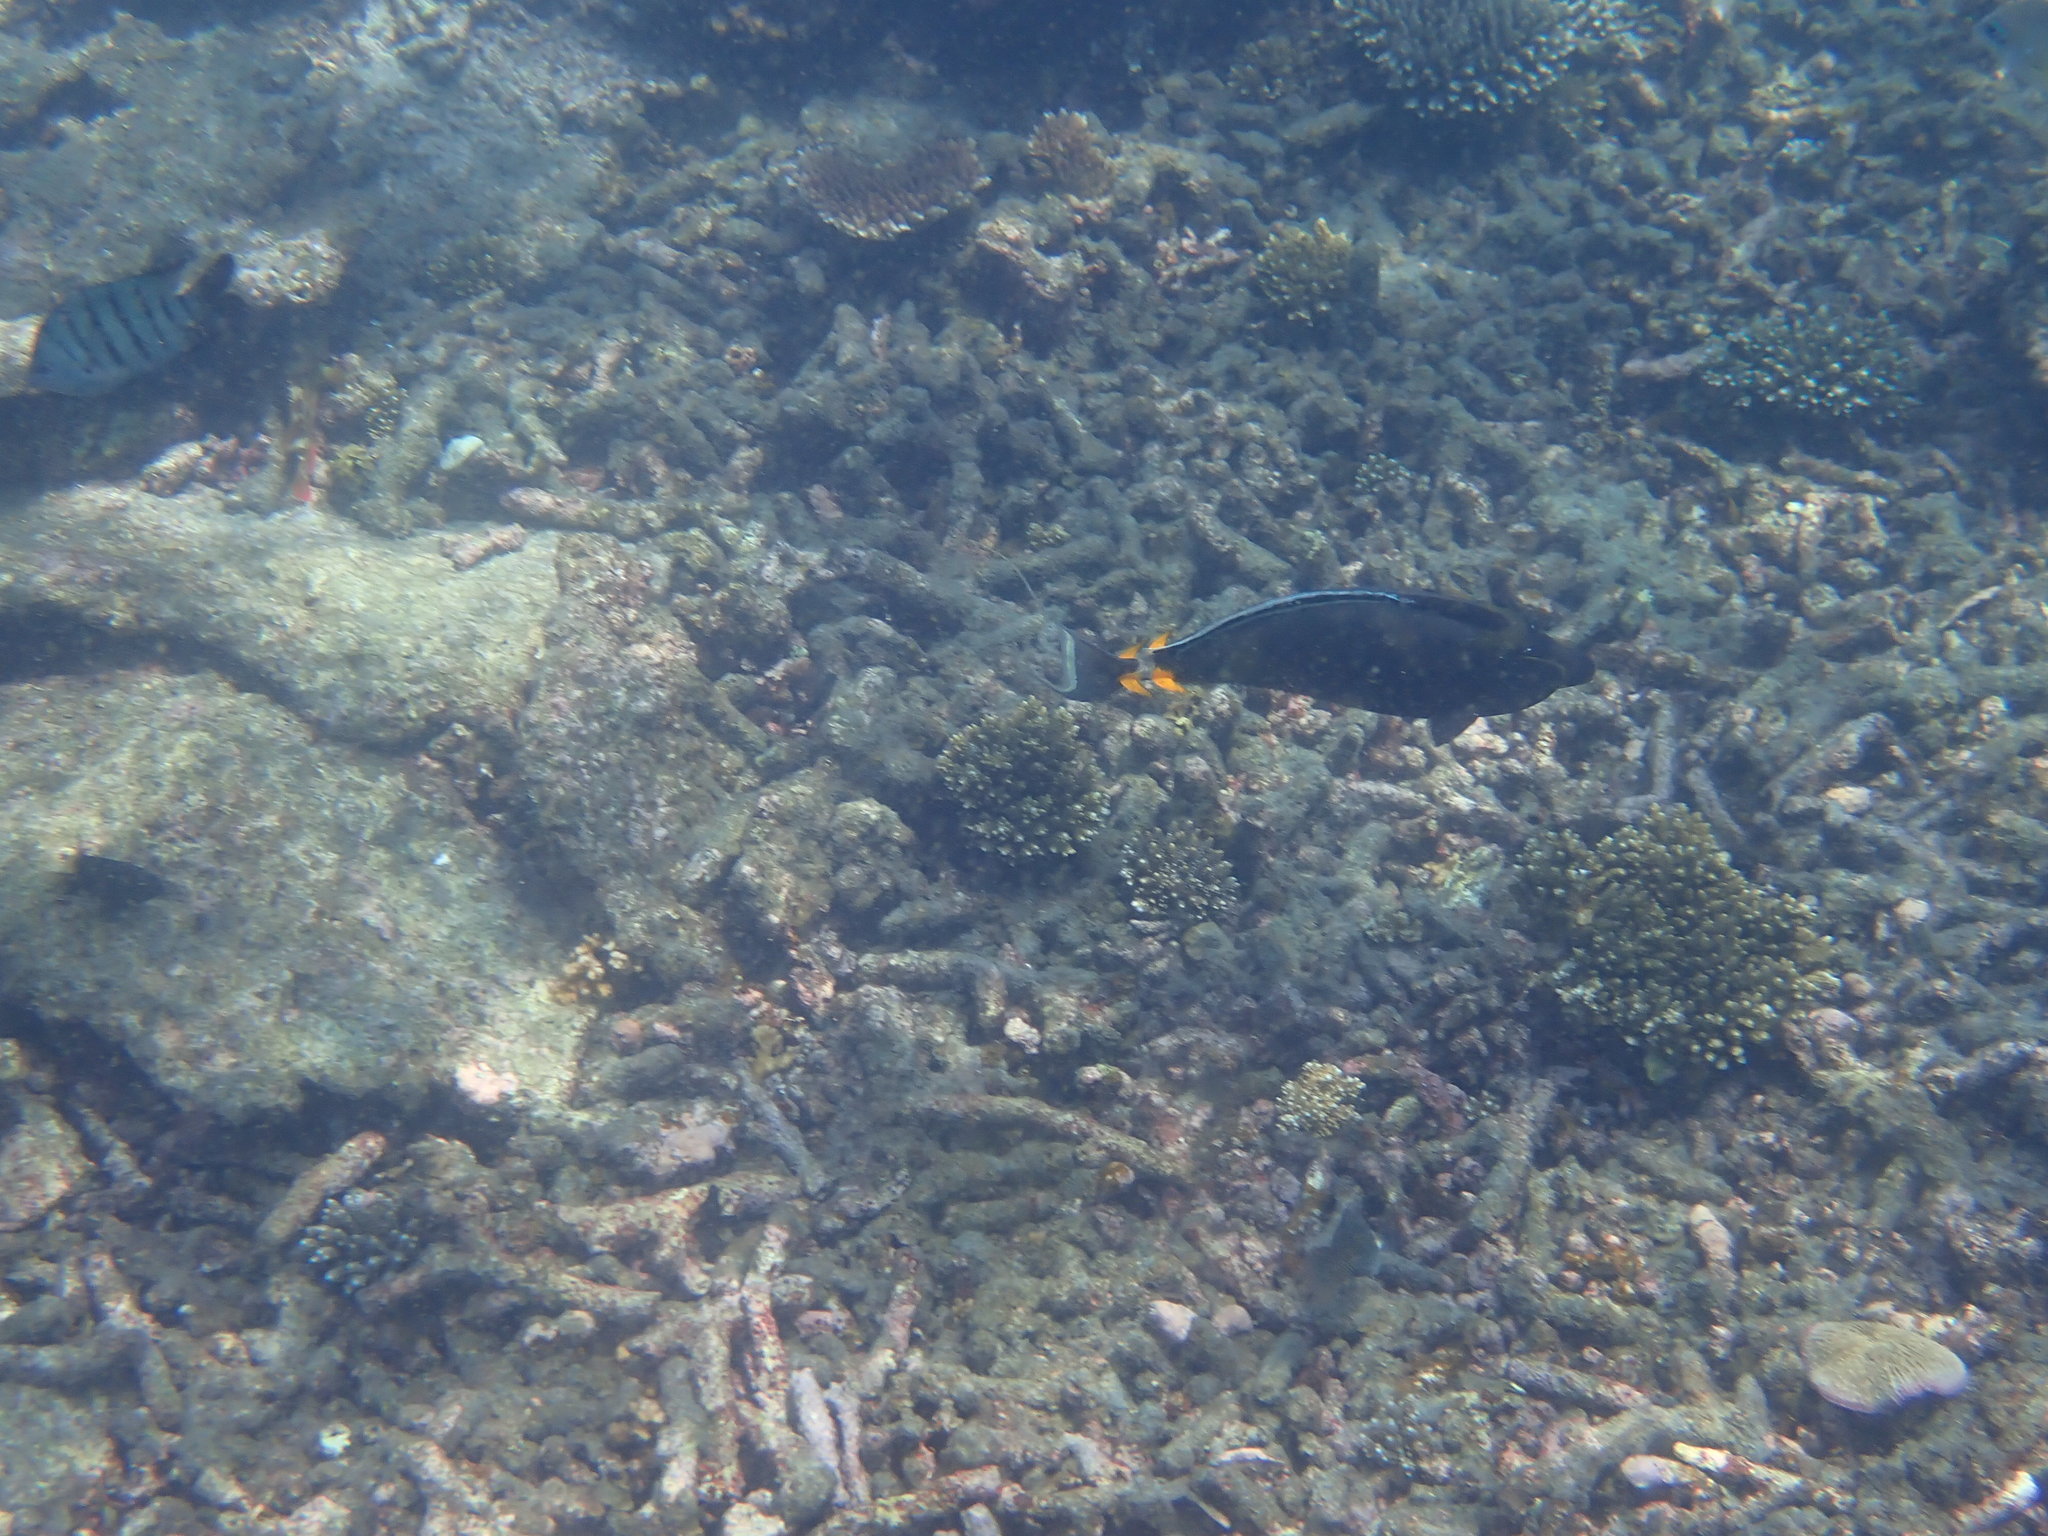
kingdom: Animalia
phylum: Chordata
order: Perciformes
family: Acanthuridae
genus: Naso
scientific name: Naso lituratus
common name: Orangespine unicornfish
